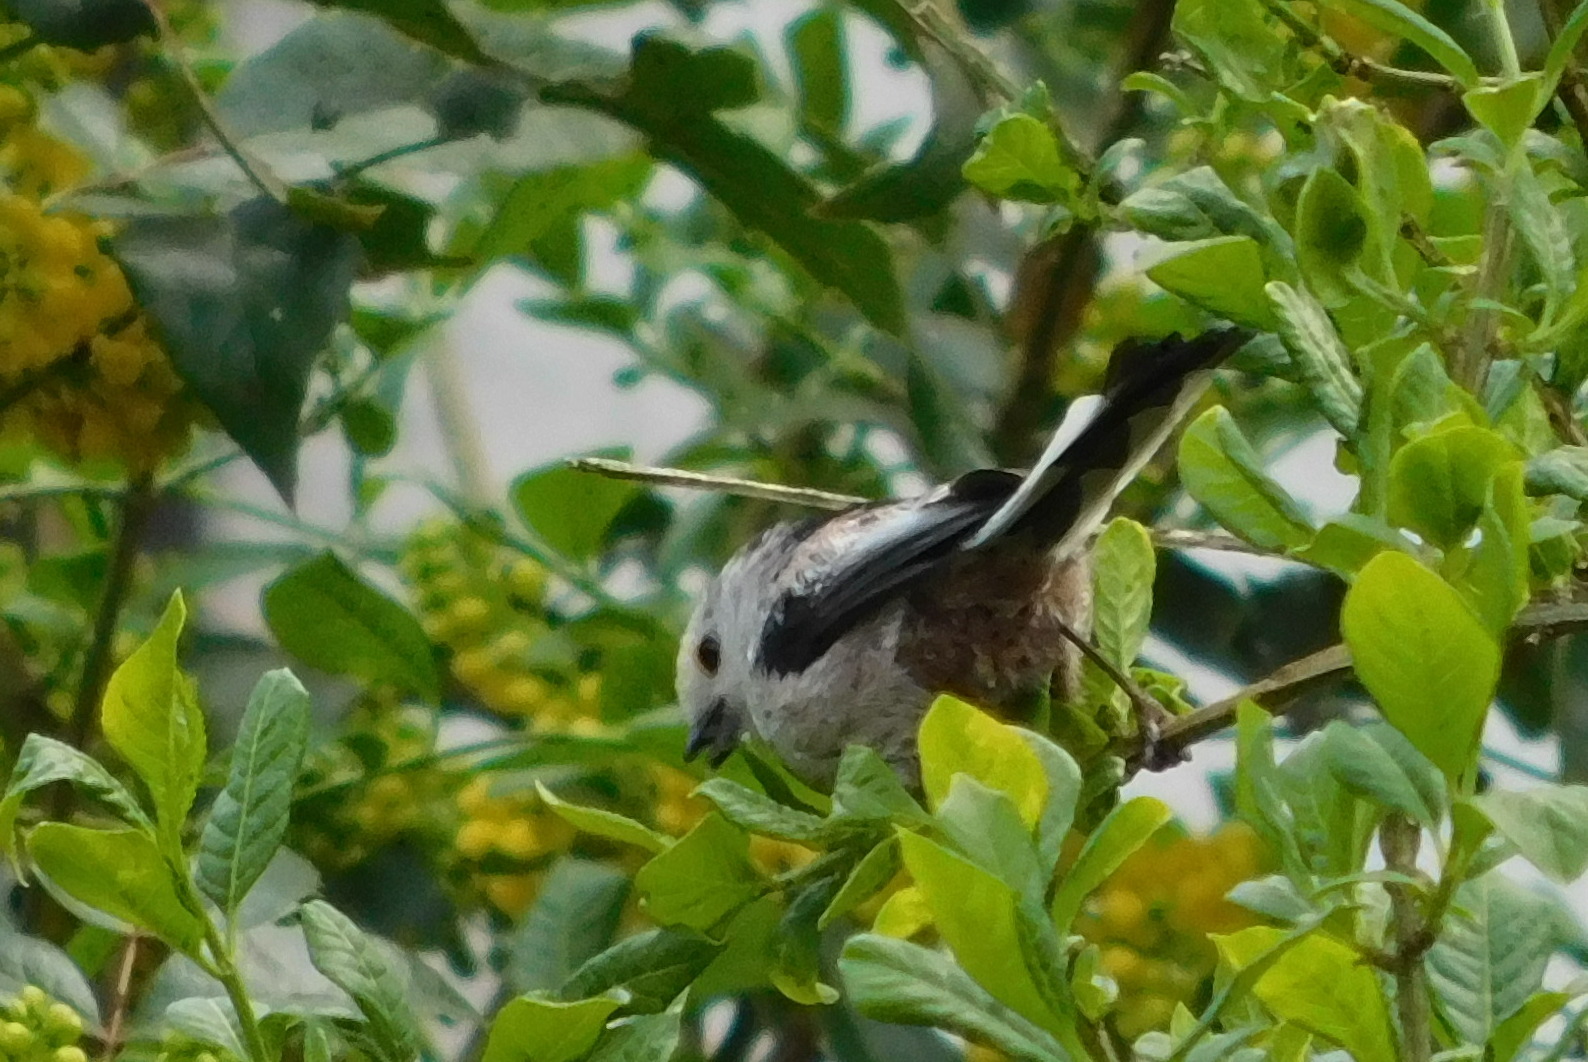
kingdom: Animalia
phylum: Chordata
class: Aves
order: Passeriformes
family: Aegithalidae
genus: Aegithalos
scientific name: Aegithalos caudatus
